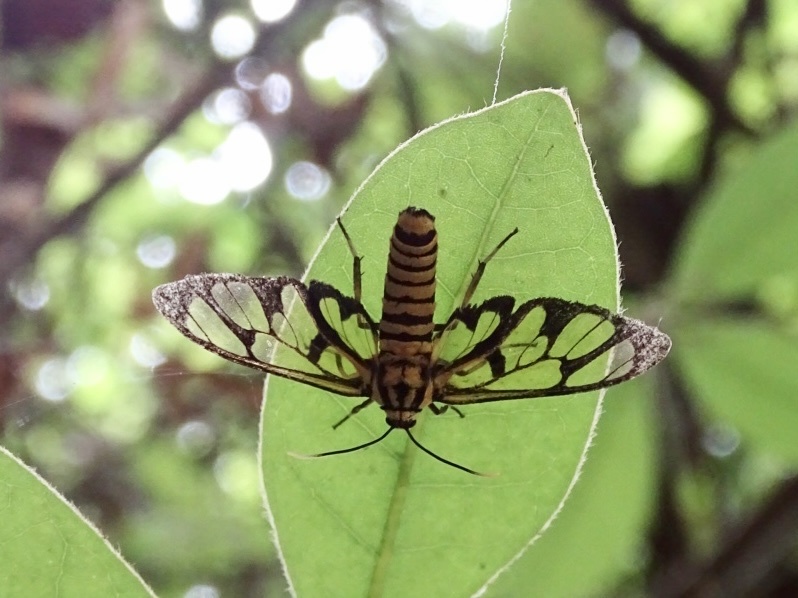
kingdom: Animalia
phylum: Arthropoda
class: Insecta
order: Lepidoptera
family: Erebidae
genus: Amata
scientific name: Amata grotei
